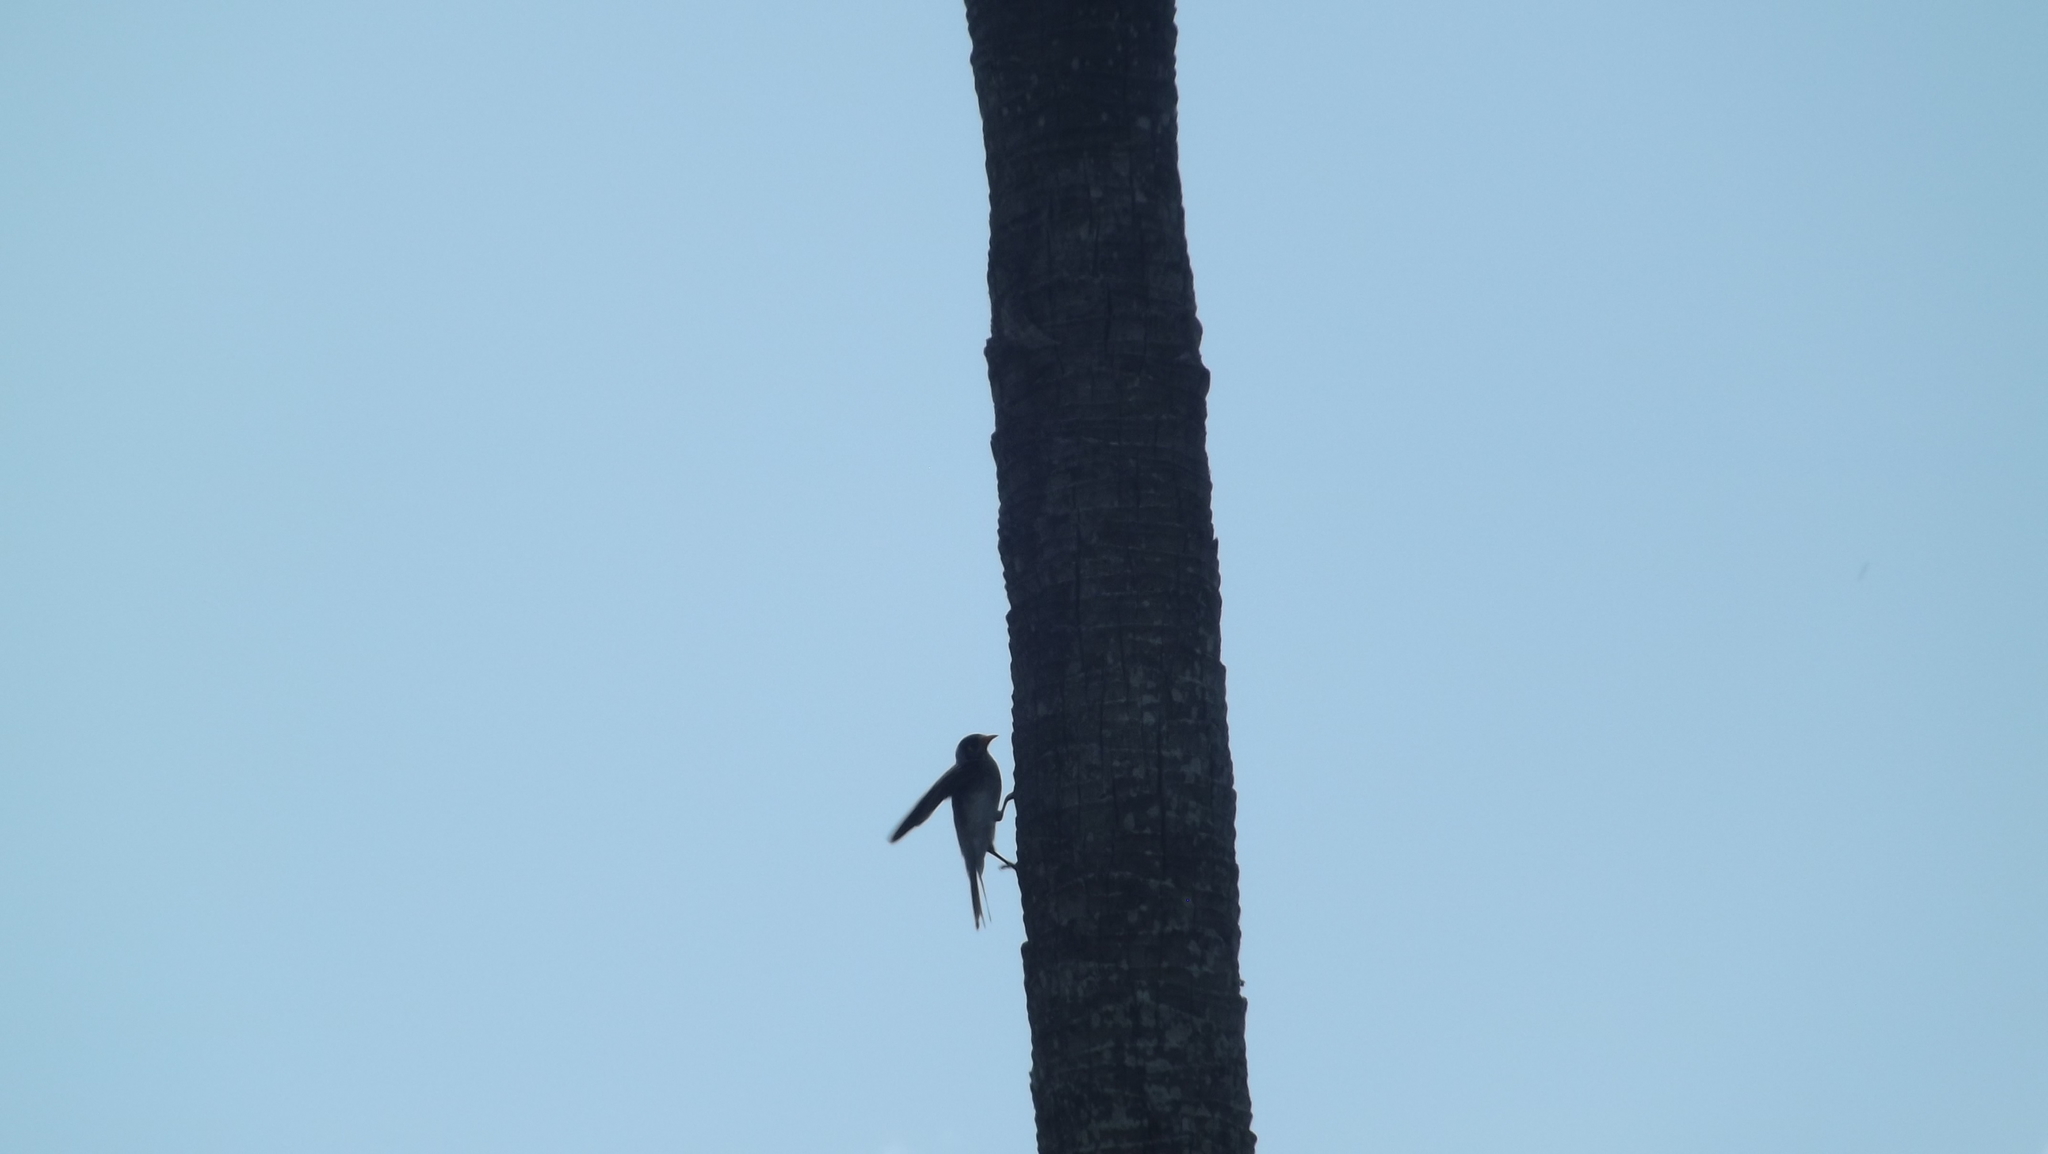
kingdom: Animalia
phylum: Chordata
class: Aves
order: Passeriformes
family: Meliphagidae
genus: Manorina
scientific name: Manorina melanocephala
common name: Noisy miner
